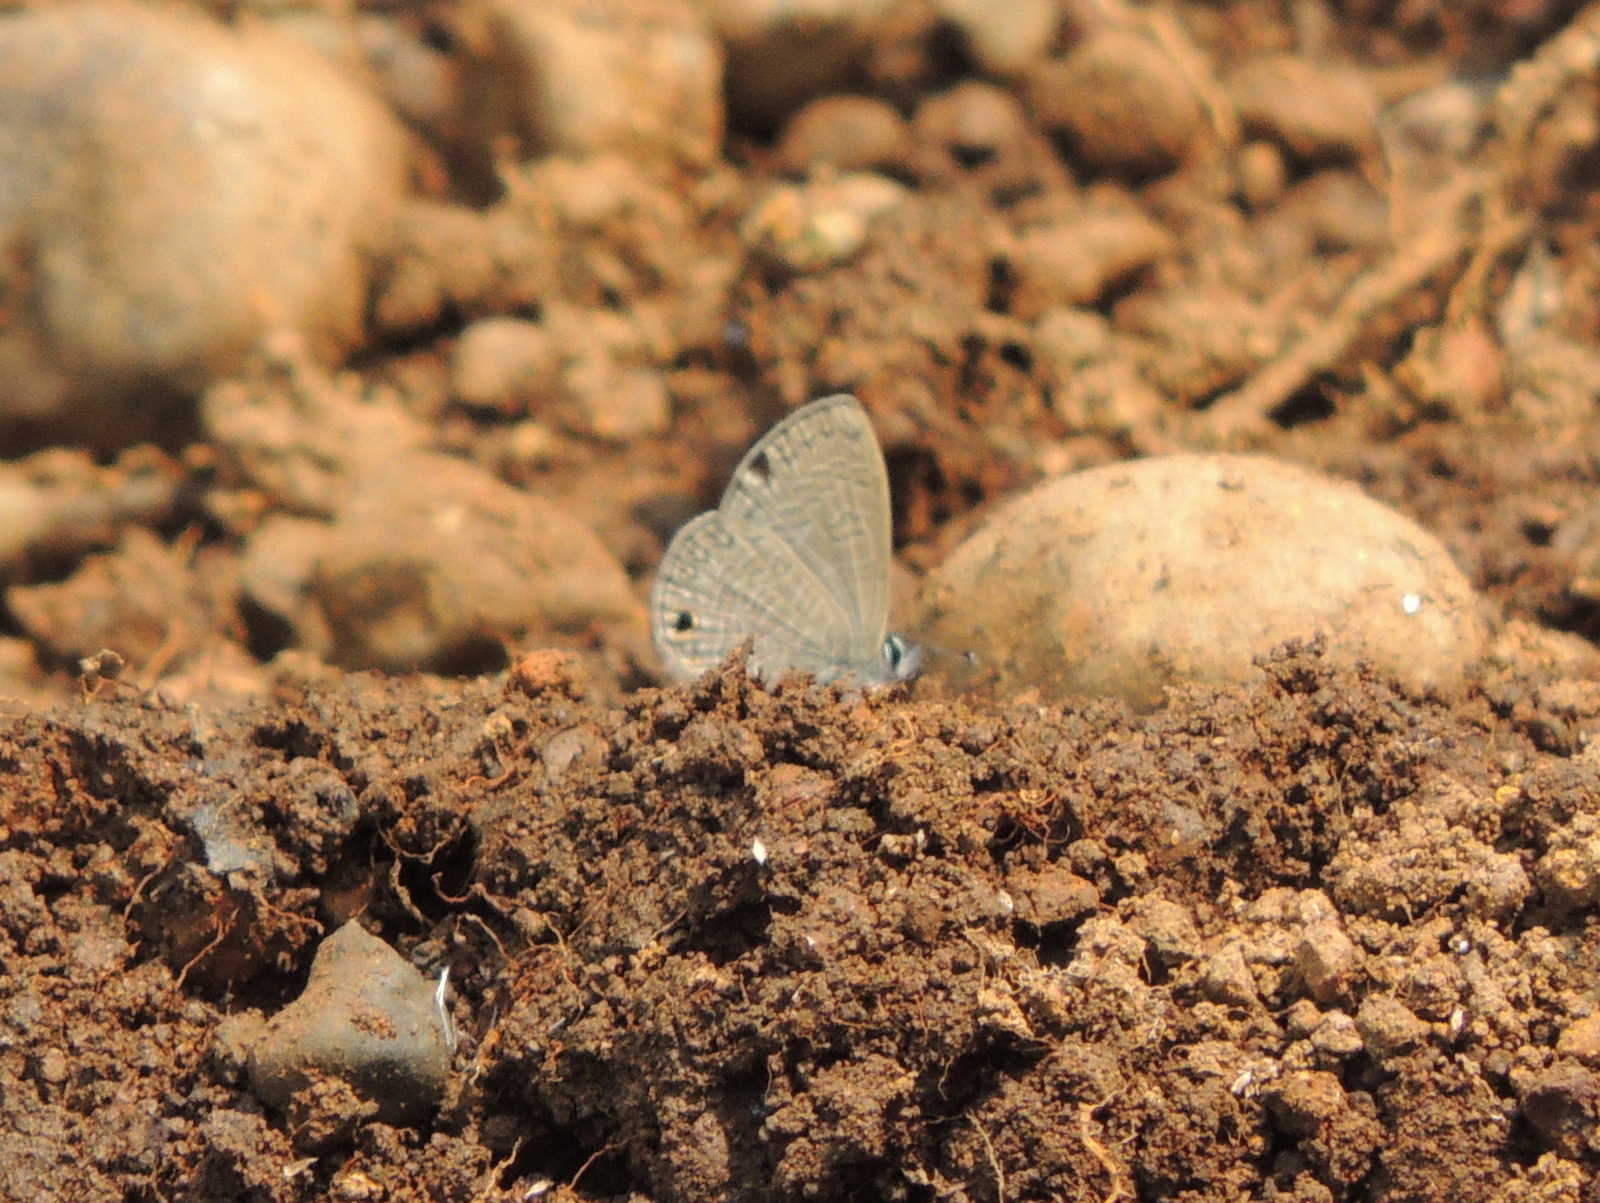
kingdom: Animalia
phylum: Arthropoda
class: Insecta
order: Lepidoptera
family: Lycaenidae
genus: Prosotas
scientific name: Prosotas dubiosa
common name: Tailless lineblue
